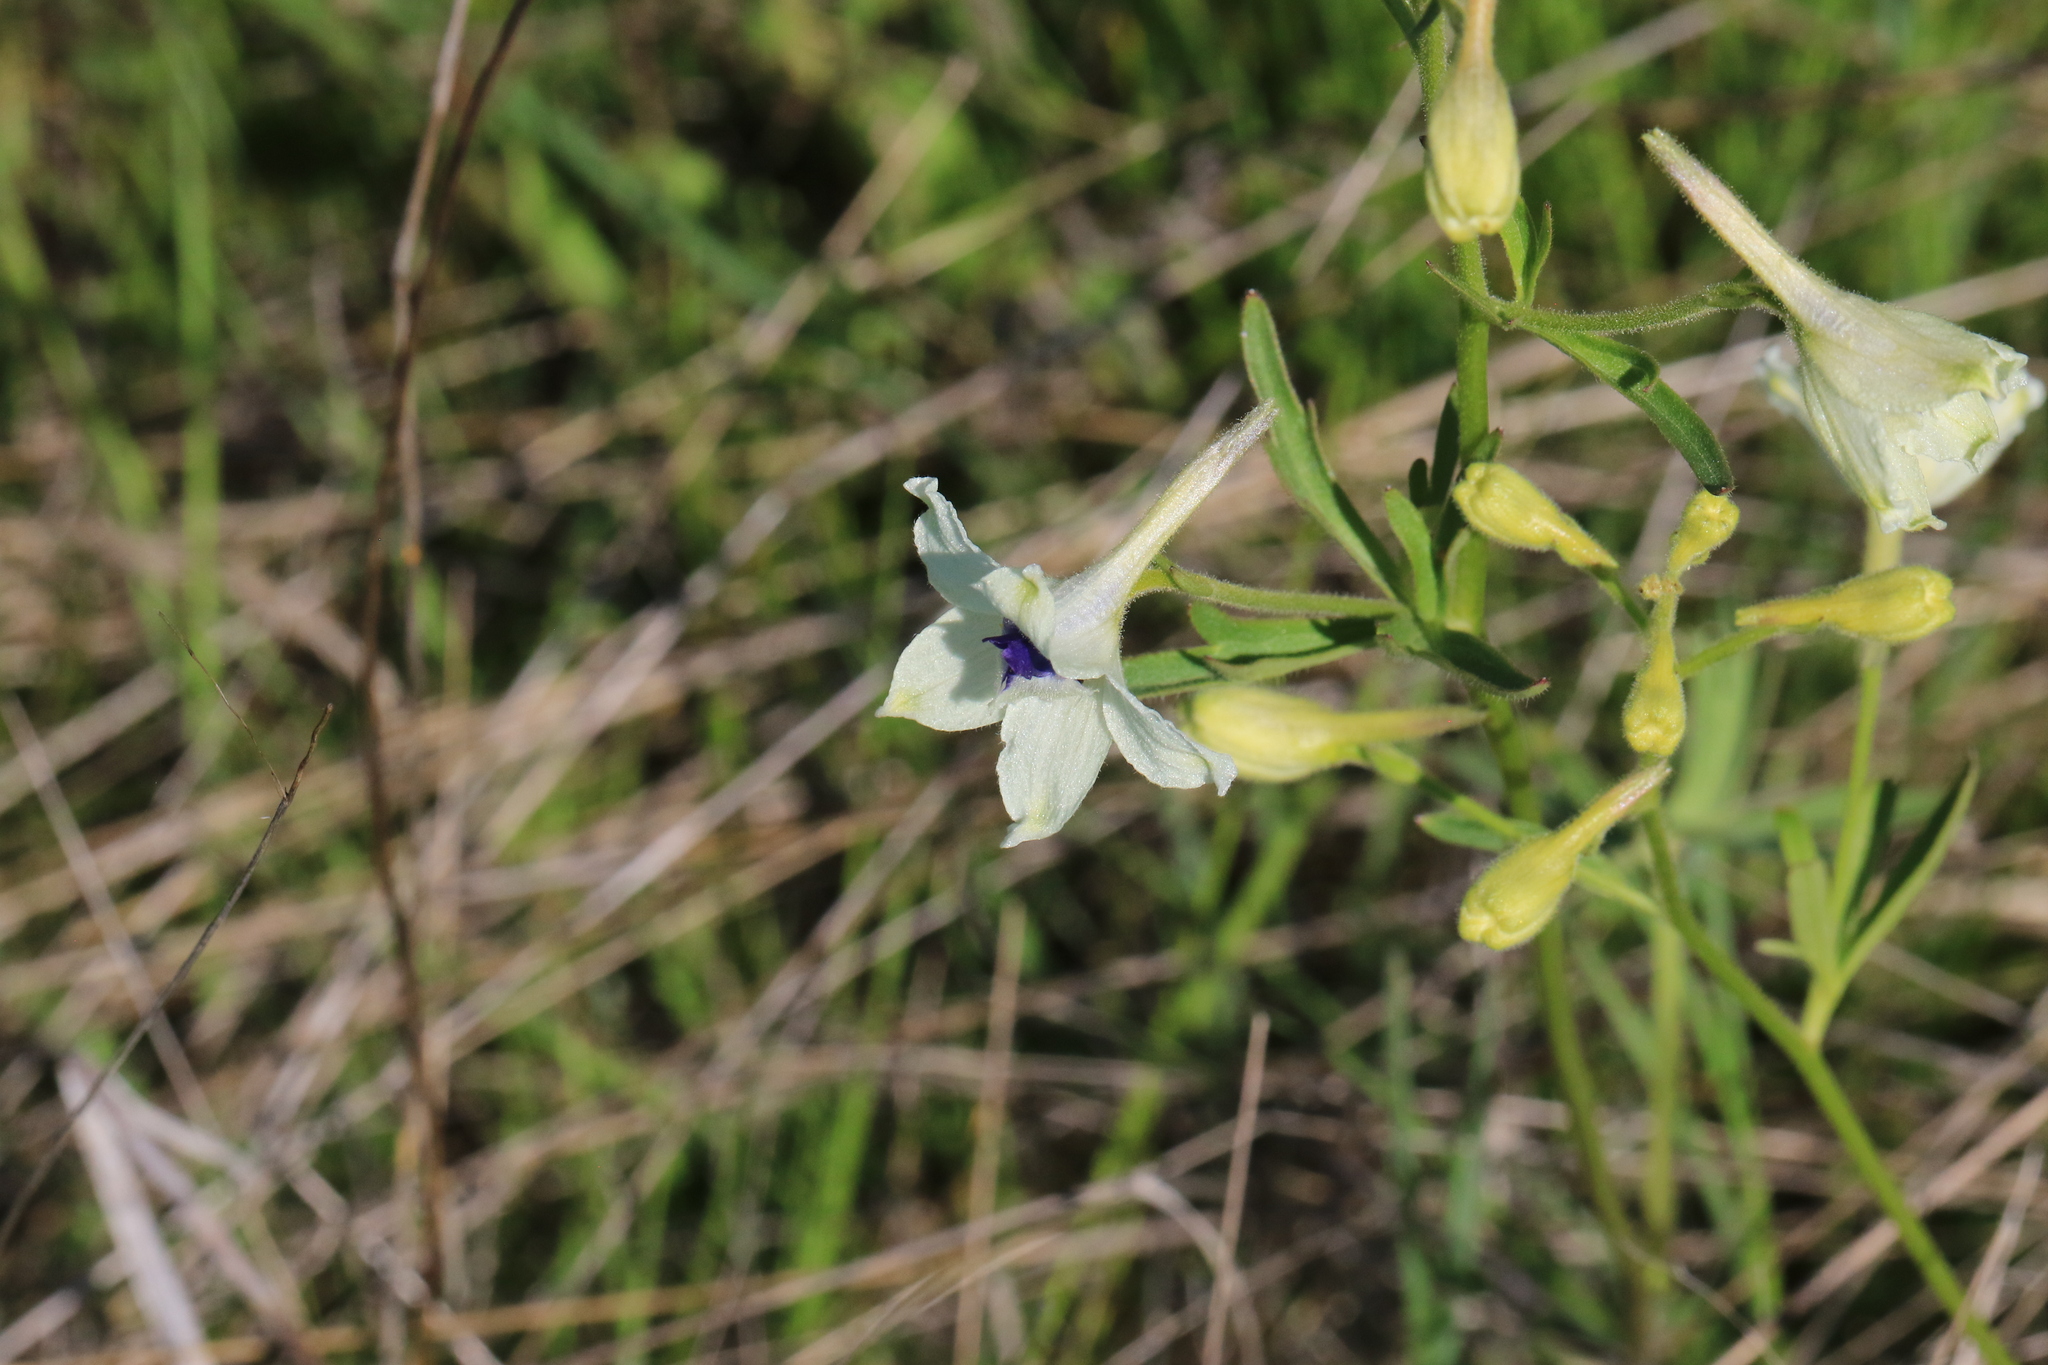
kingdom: Plantae
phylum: Tracheophyta
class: Magnoliopsida
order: Ranunculales
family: Ranunculaceae
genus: Delphinium
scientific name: Delphinium pavonaceum
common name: Peacock larkspur
